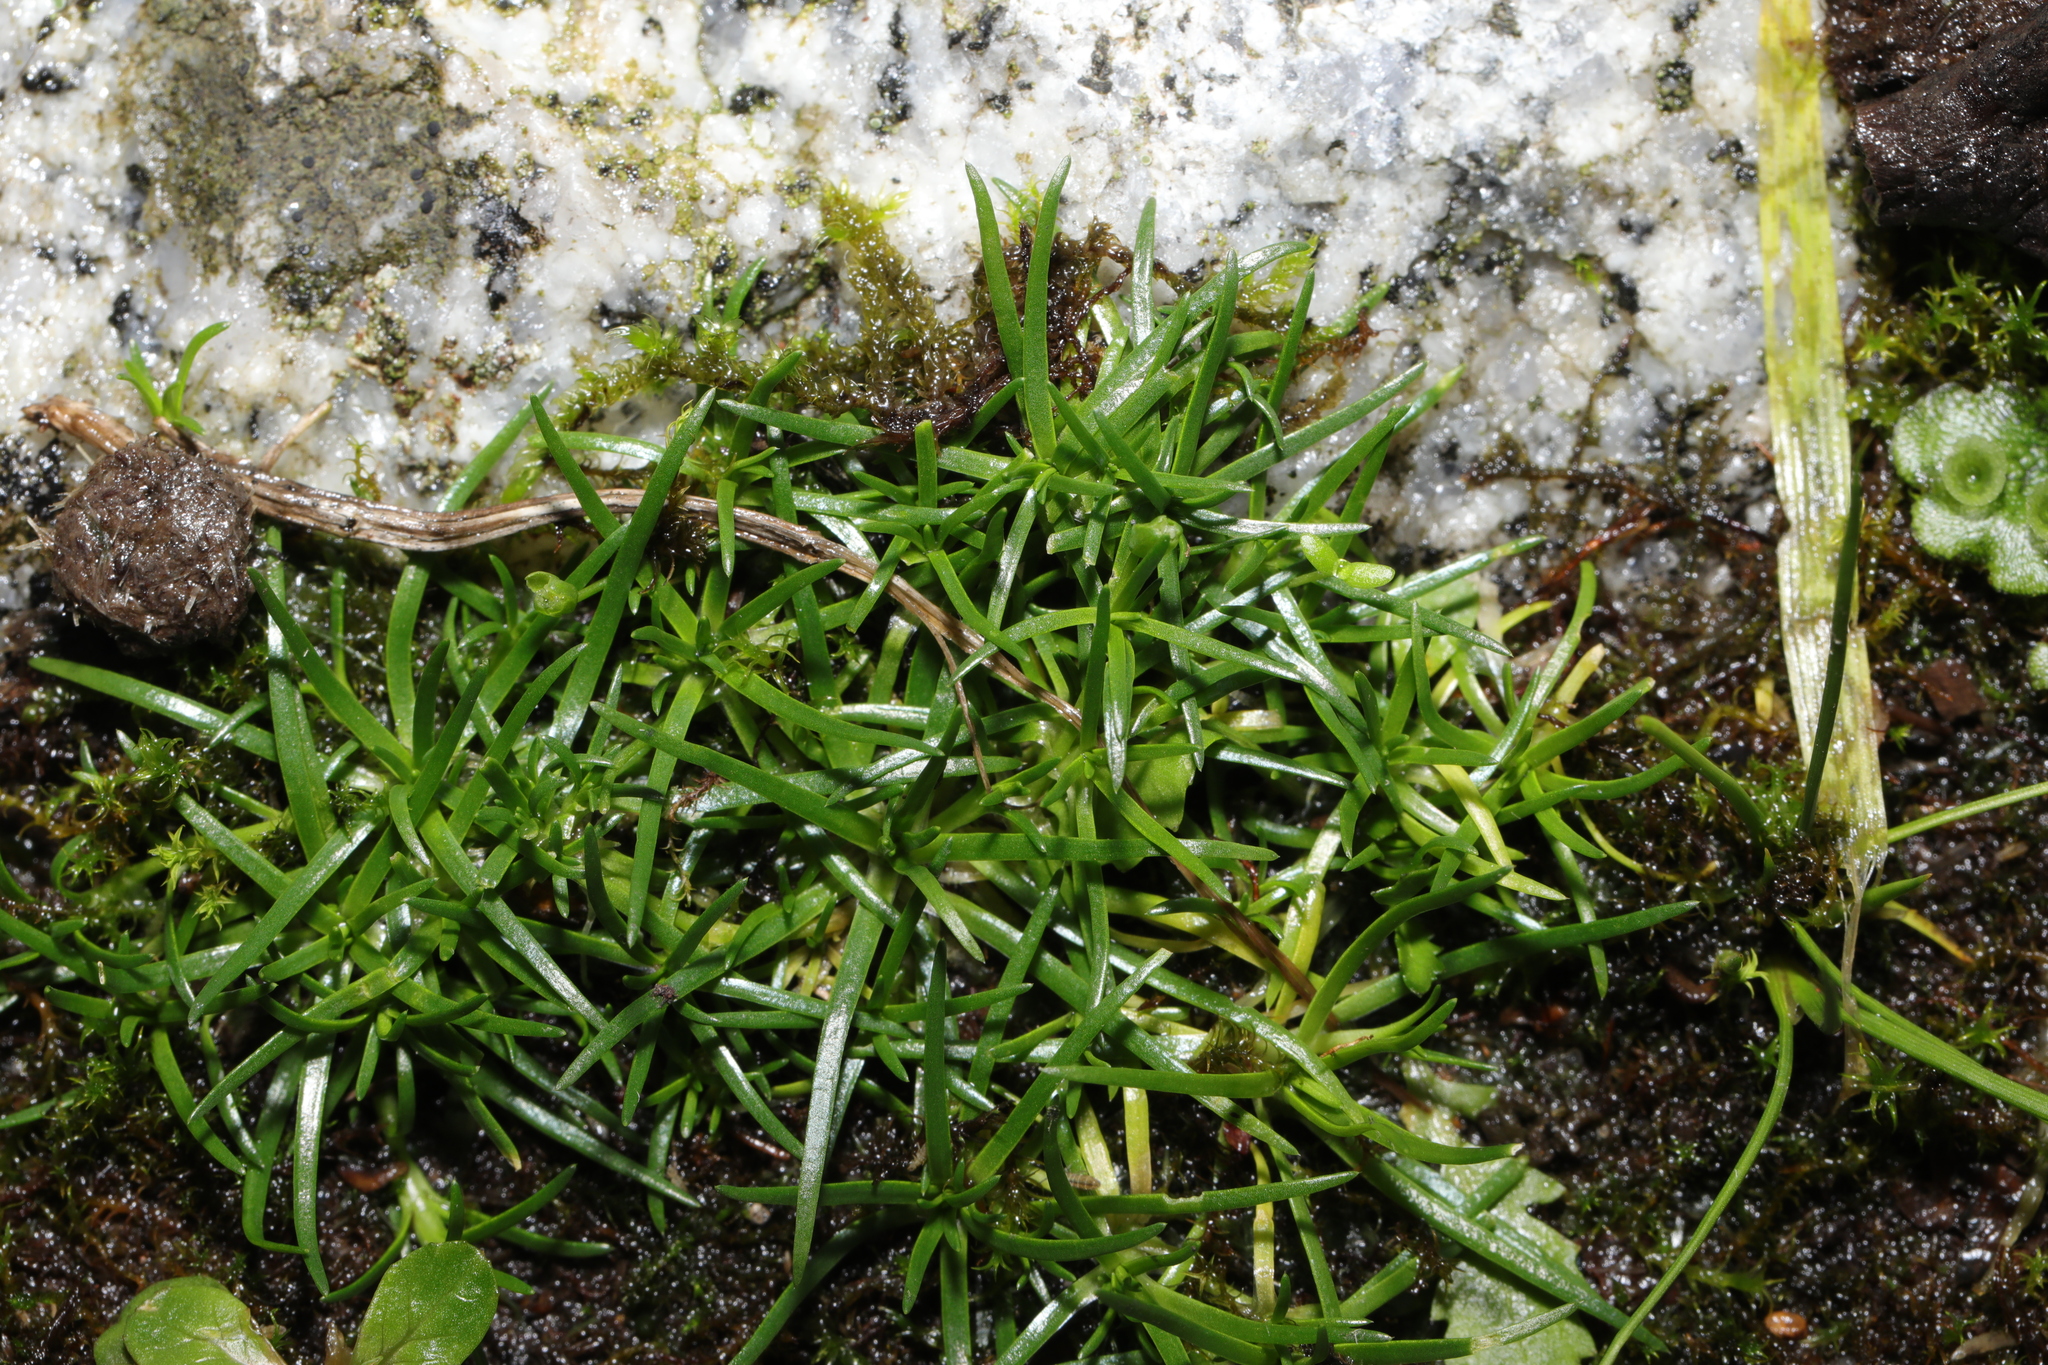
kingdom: Plantae
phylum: Tracheophyta
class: Magnoliopsida
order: Caryophyllales
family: Caryophyllaceae
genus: Sagina
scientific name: Sagina procumbens
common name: Procumbent pearlwort
